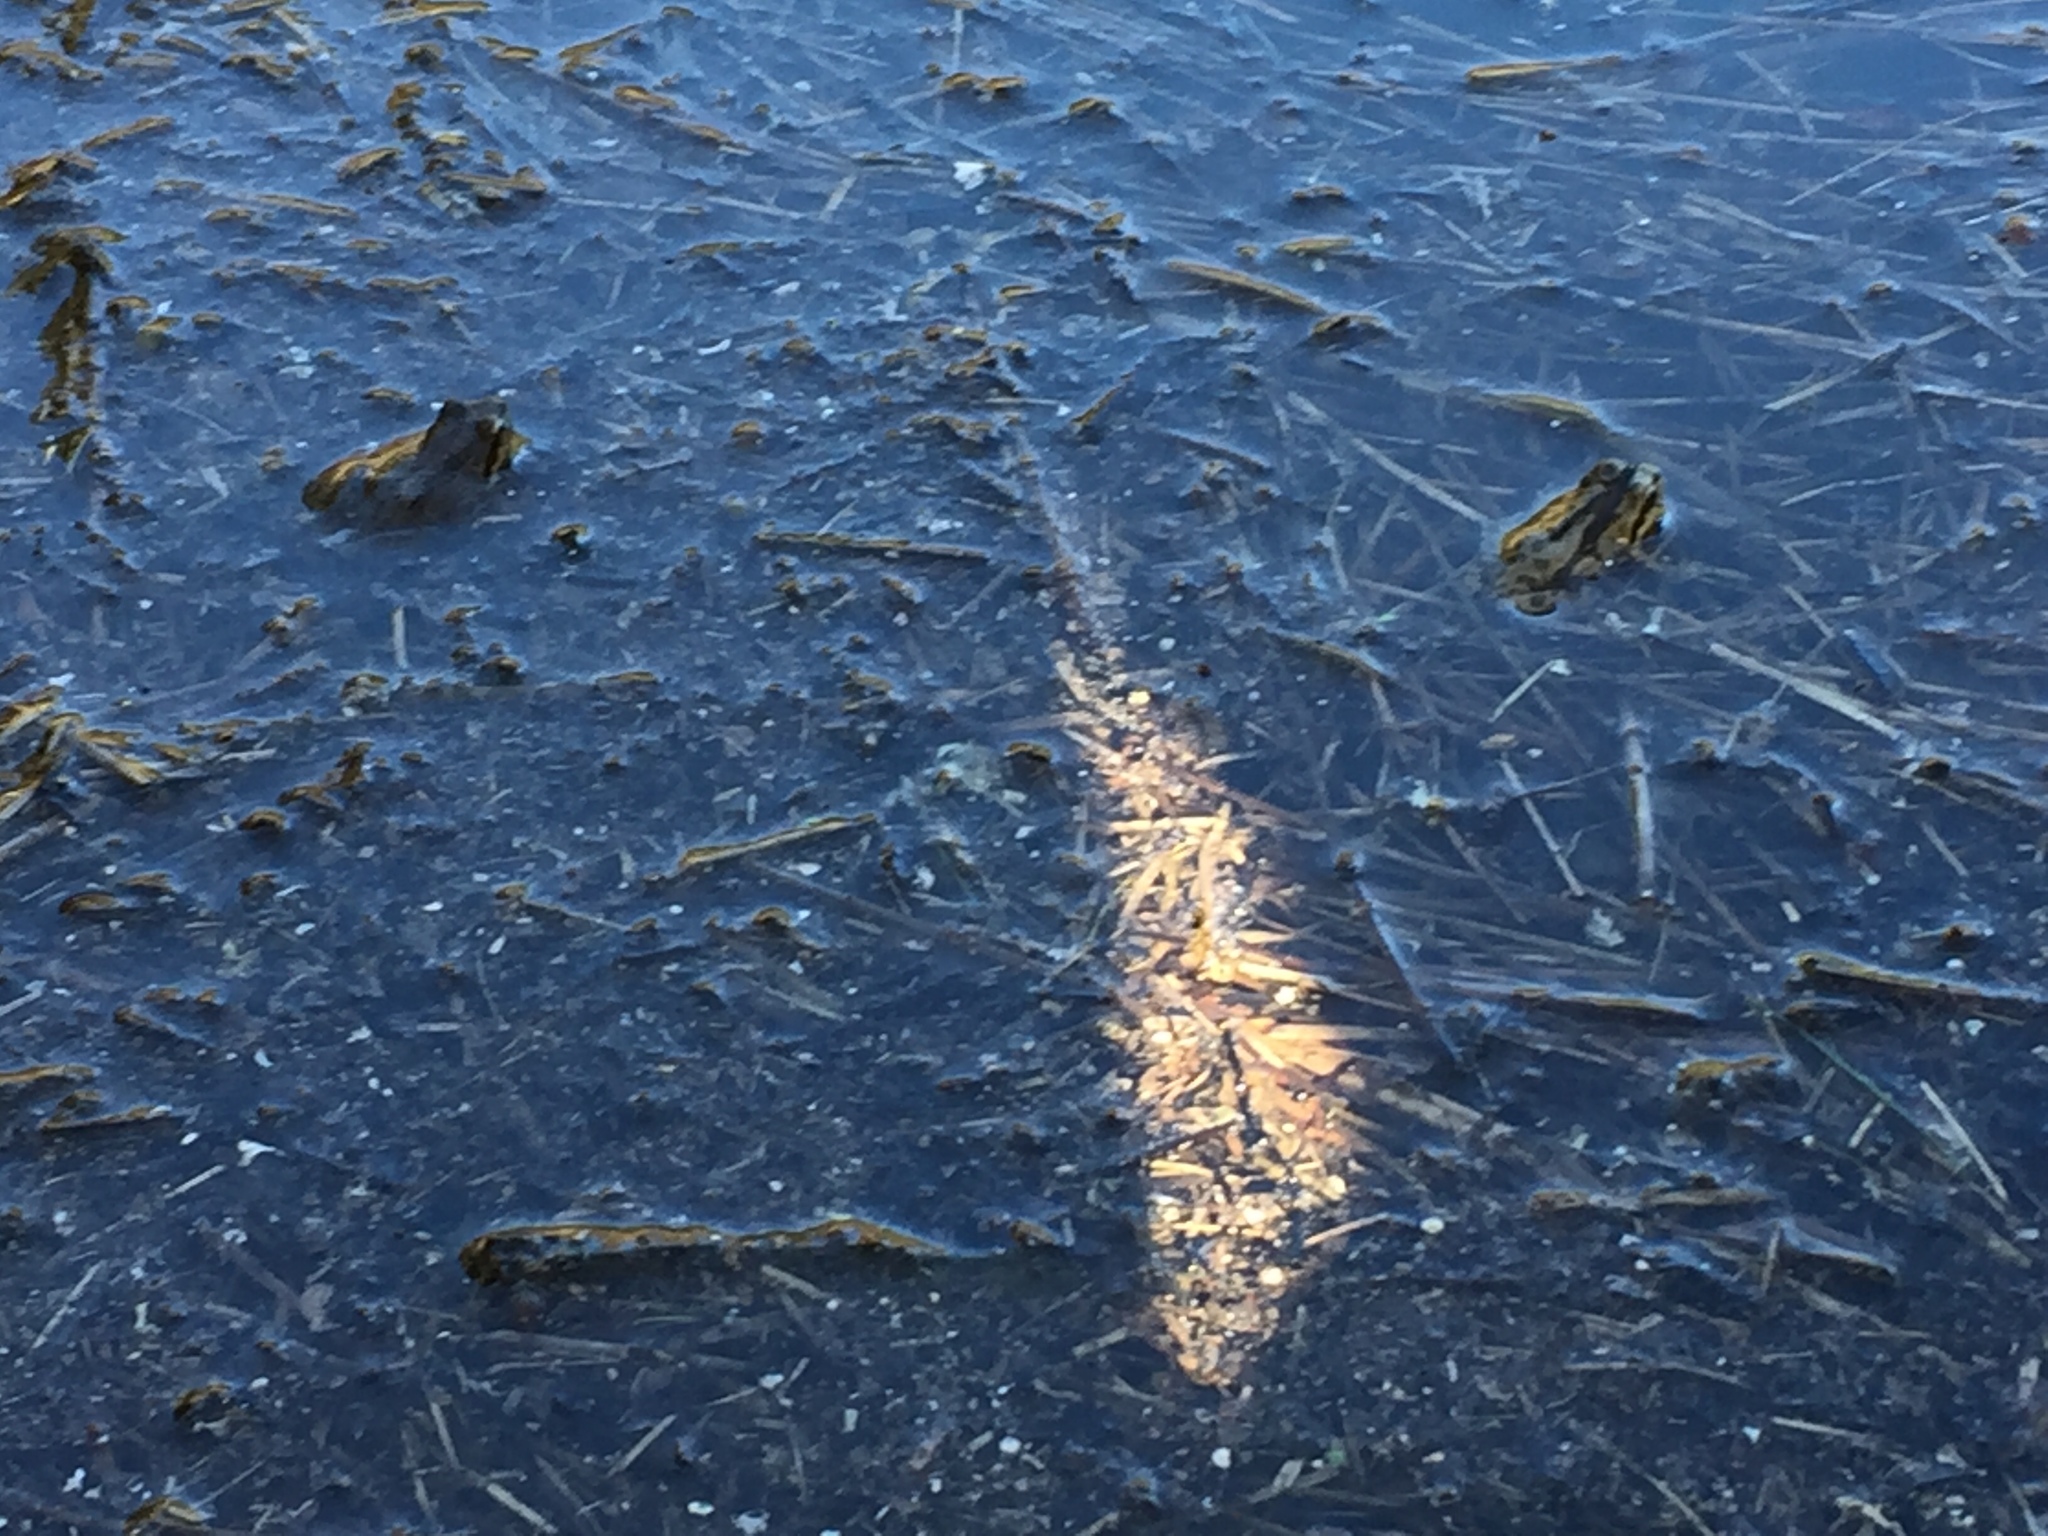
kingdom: Animalia
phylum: Chordata
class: Amphibia
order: Anura
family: Hylidae
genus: Pseudacris
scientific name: Pseudacris regilla
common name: Pacific chorus frog
